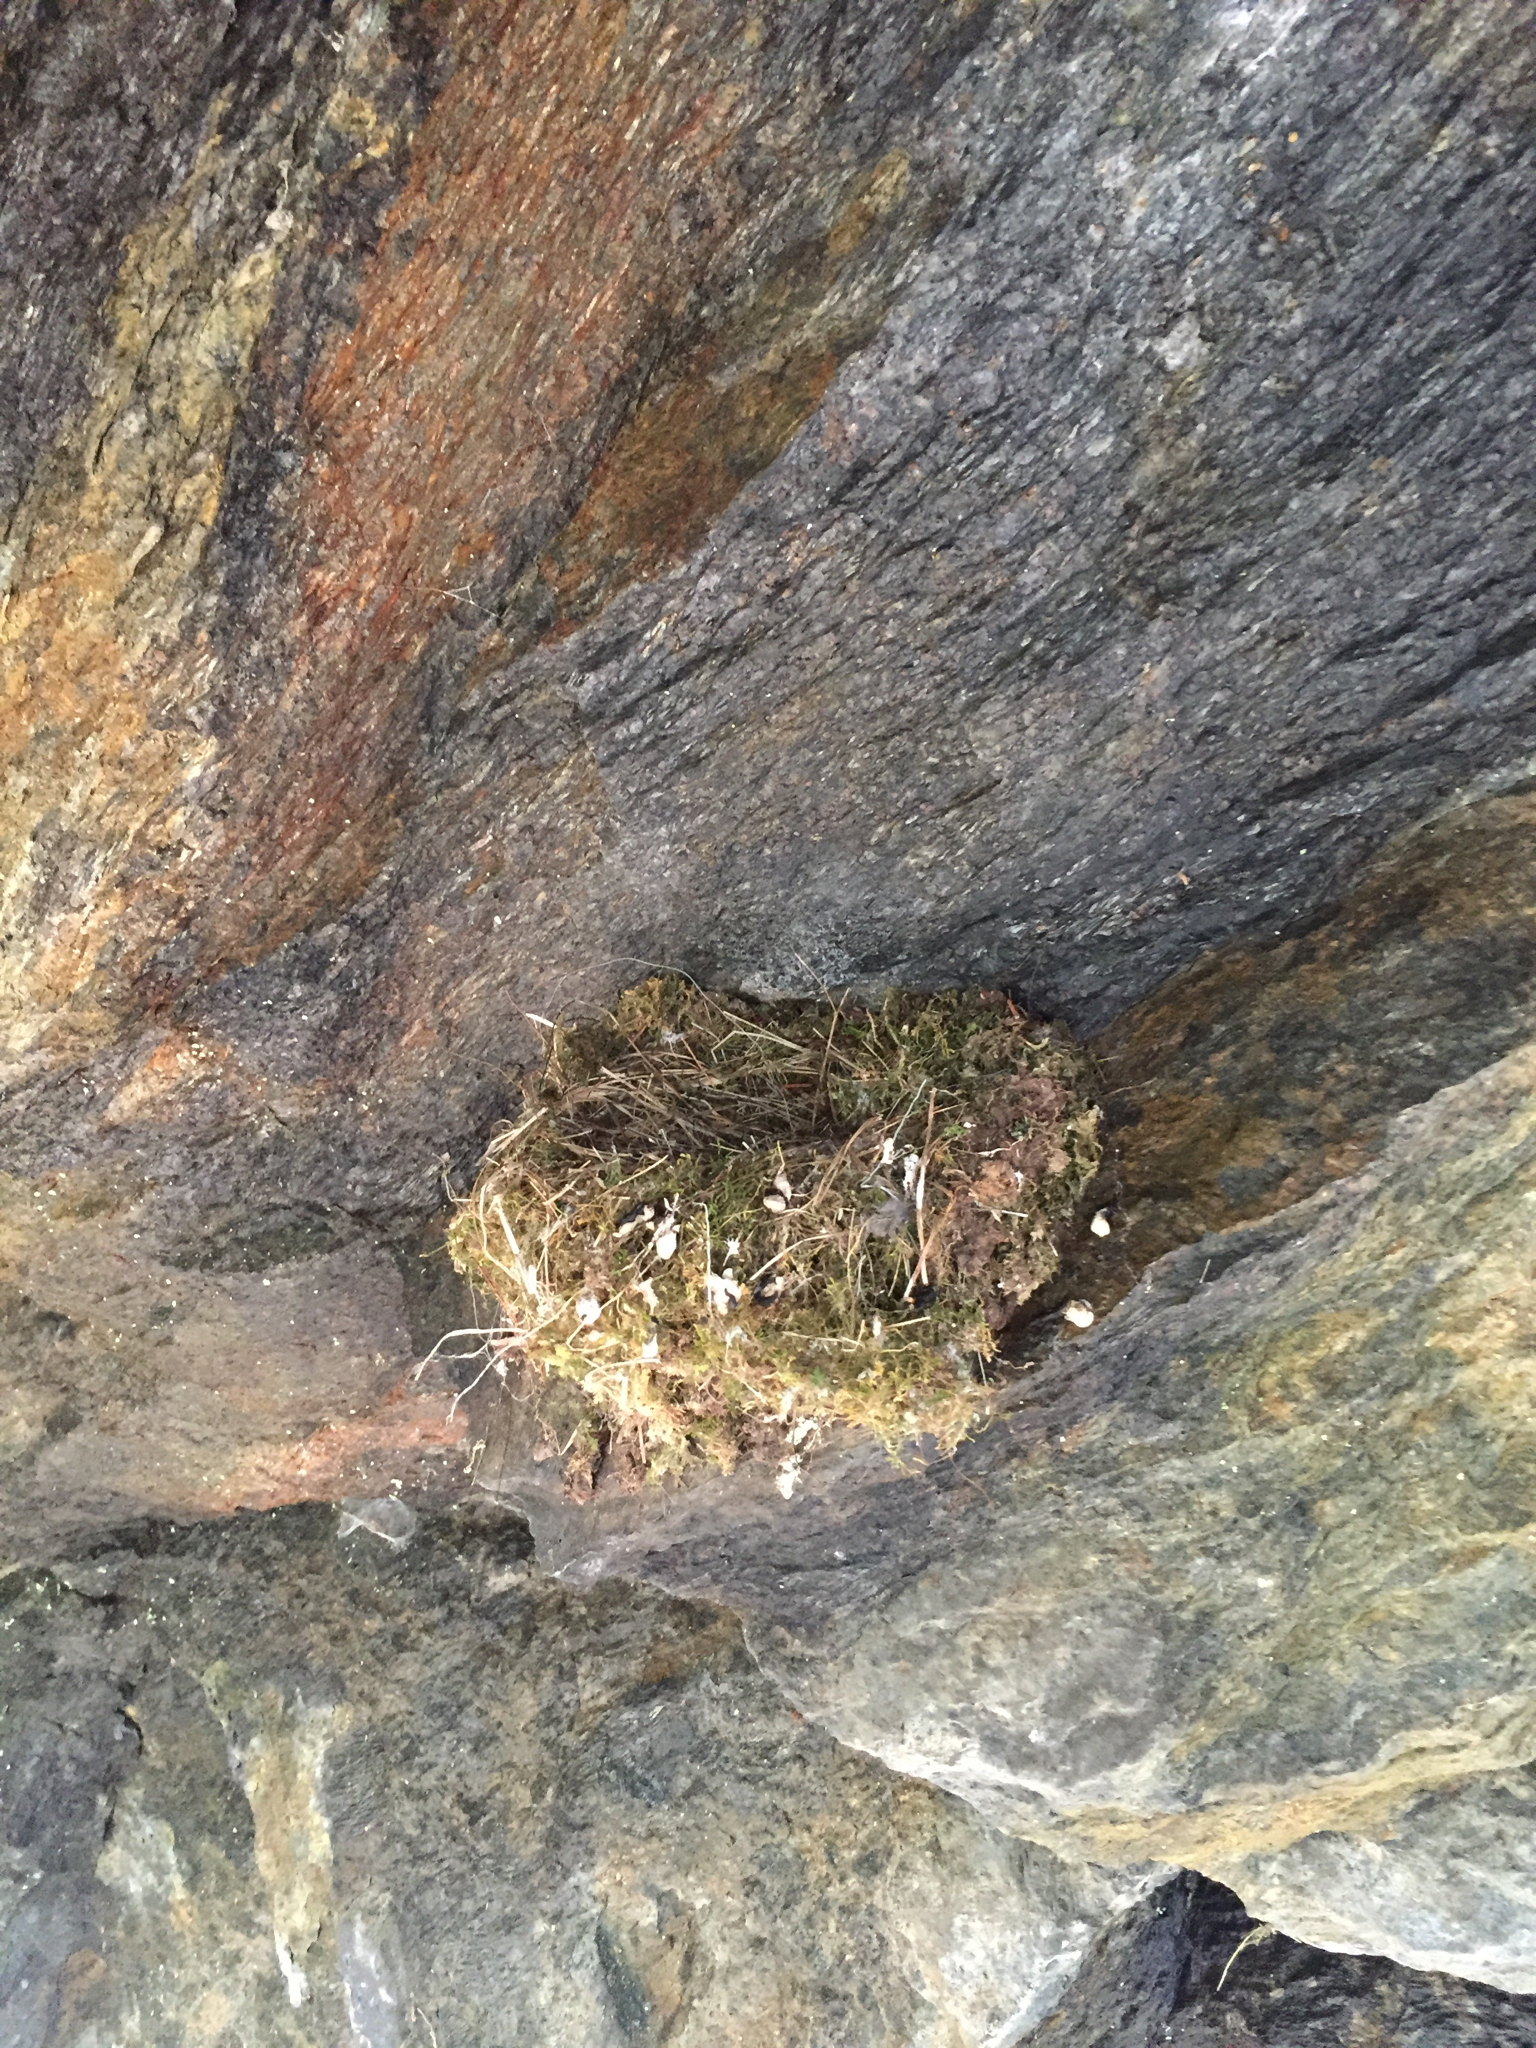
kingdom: Animalia
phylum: Chordata
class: Aves
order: Passeriformes
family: Tyrannidae
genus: Sayornis
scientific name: Sayornis phoebe
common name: Eastern phoebe
